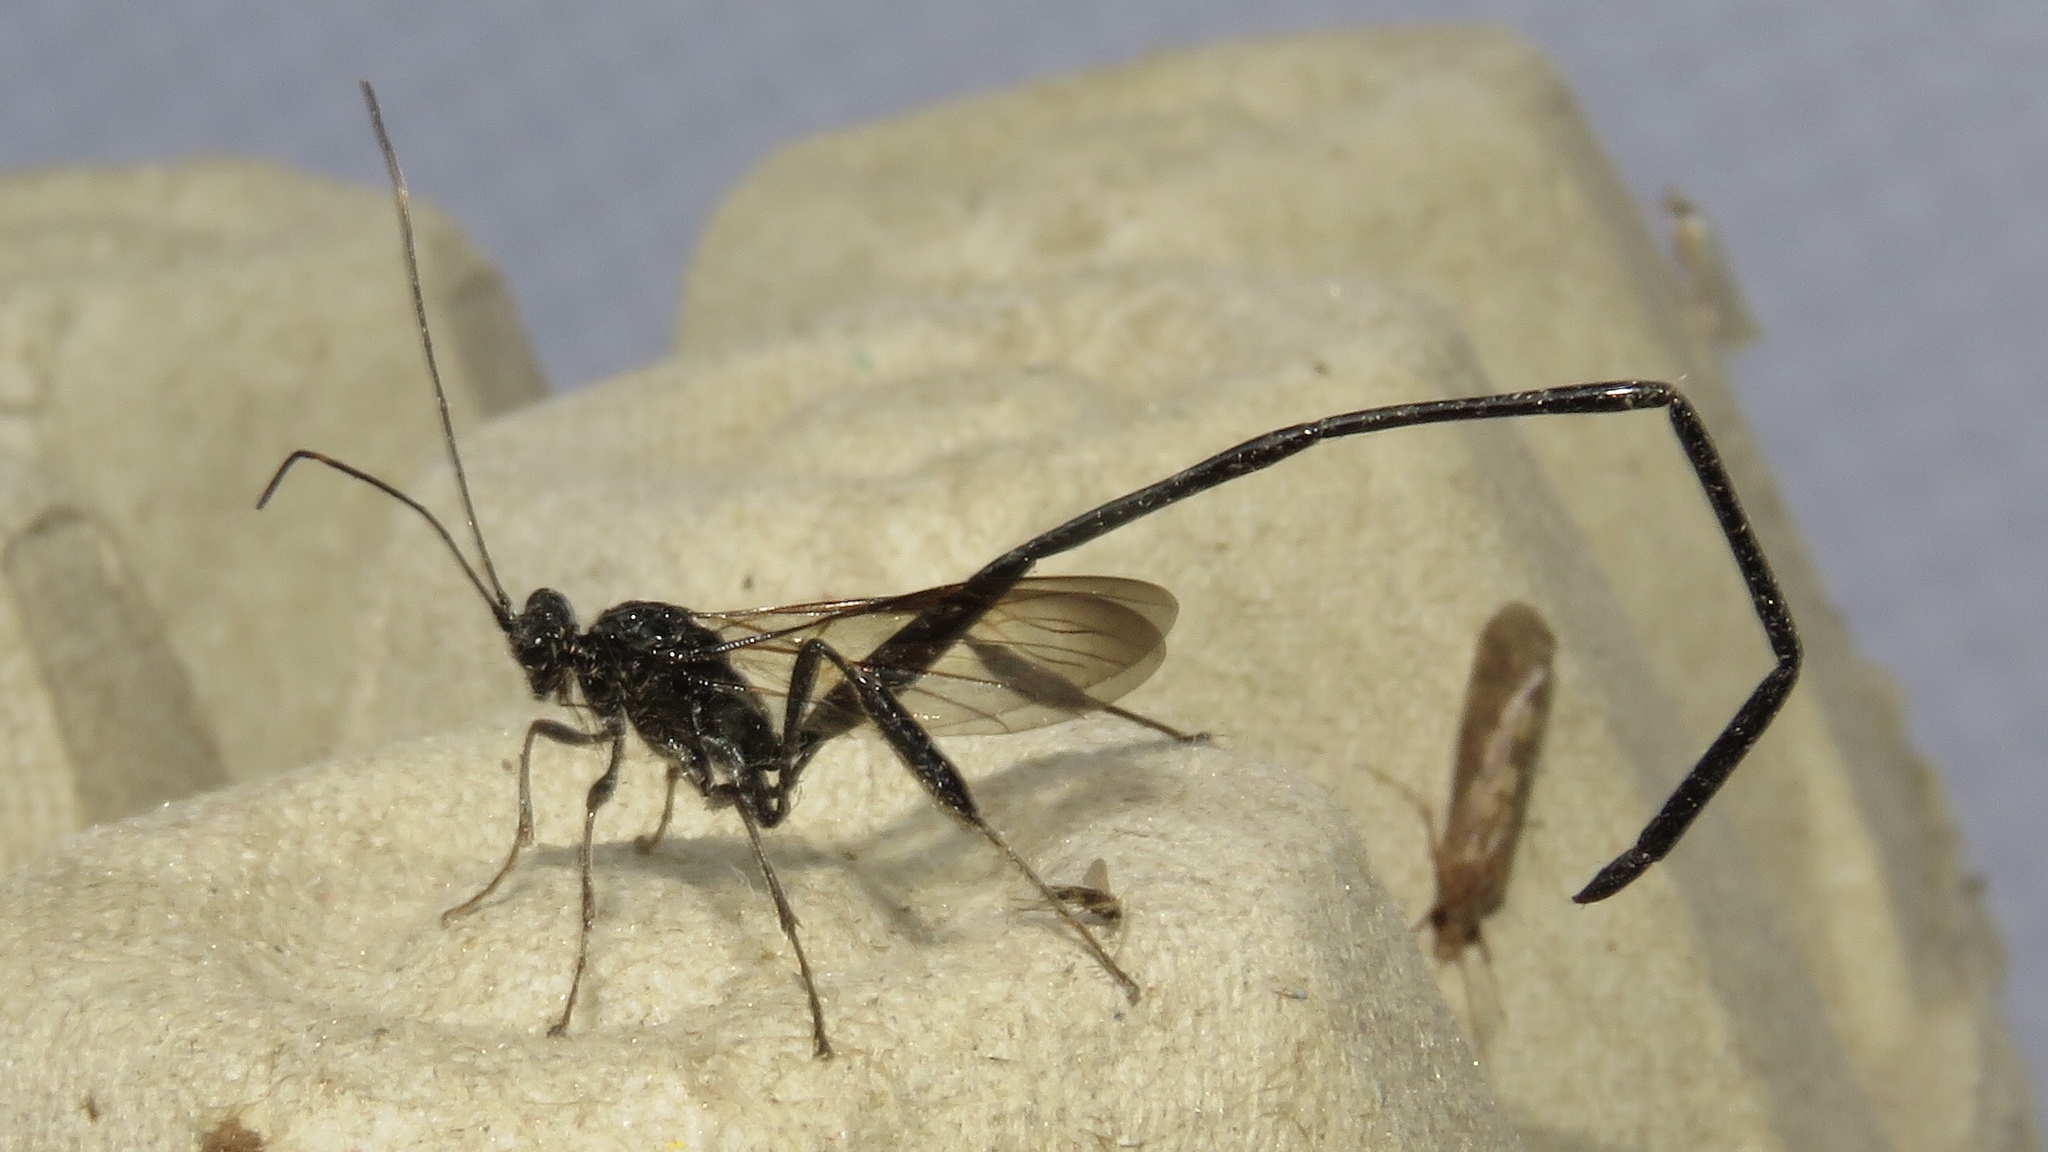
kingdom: Animalia
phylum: Arthropoda
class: Insecta
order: Hymenoptera
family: Pelecinidae
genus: Pelecinus
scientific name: Pelecinus polyturator
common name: American pelecinid wasp
